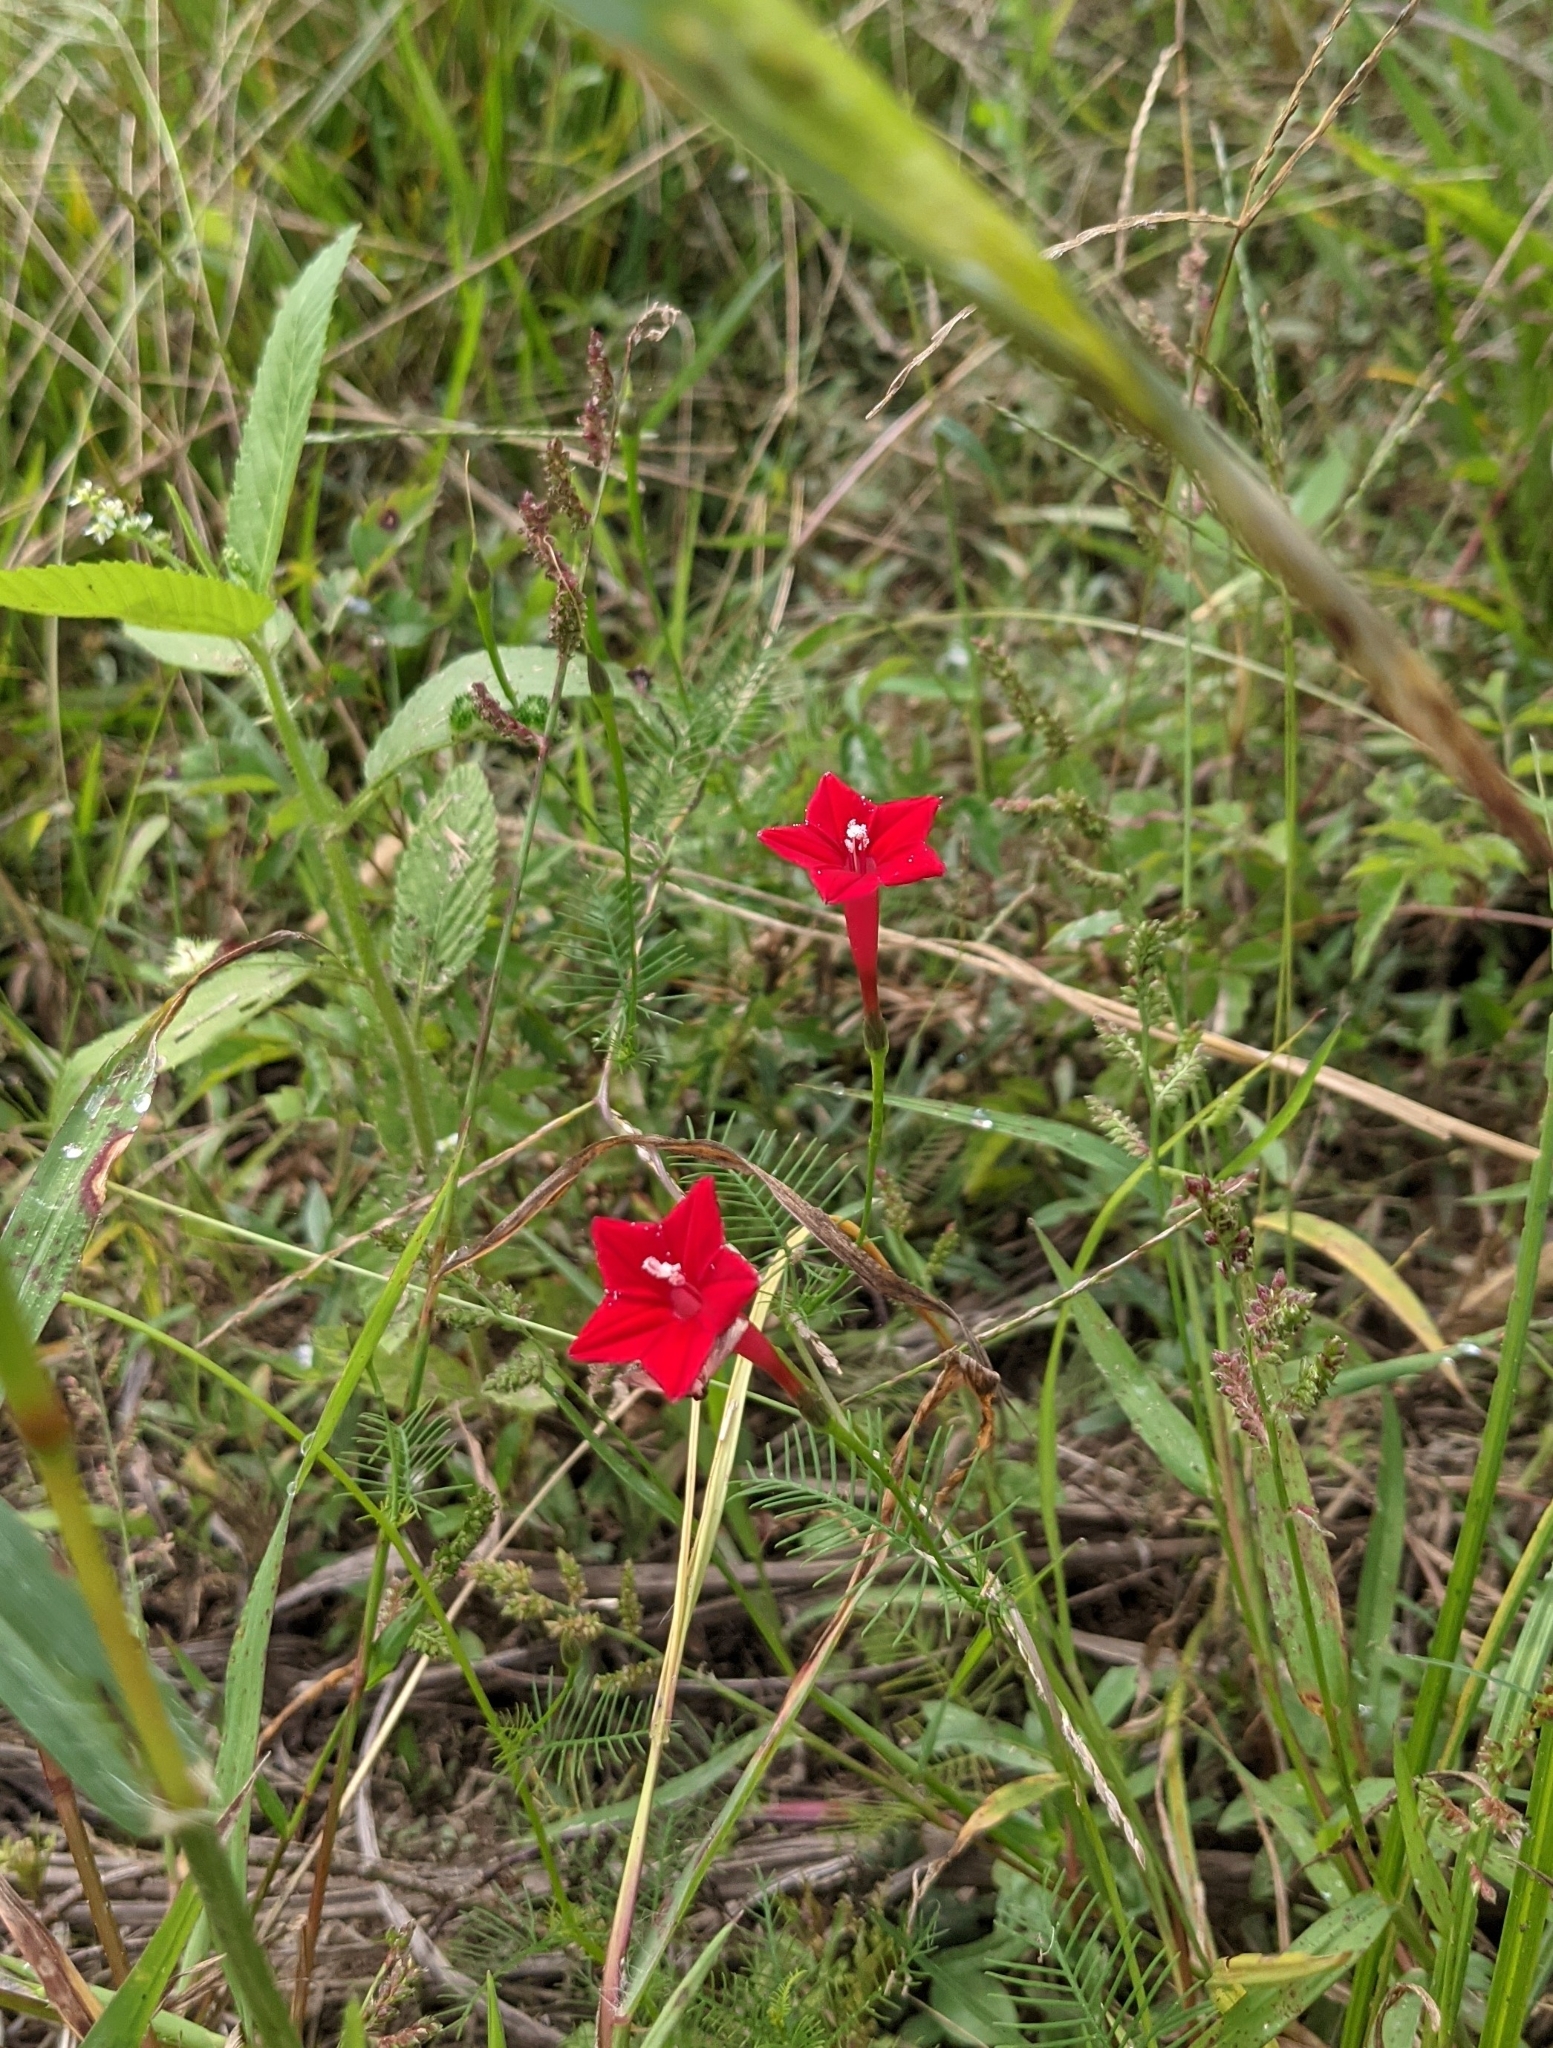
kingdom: Plantae
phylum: Tracheophyta
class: Magnoliopsida
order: Solanales
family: Convolvulaceae
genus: Ipomoea
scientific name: Ipomoea quamoclit
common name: Cypress vine
